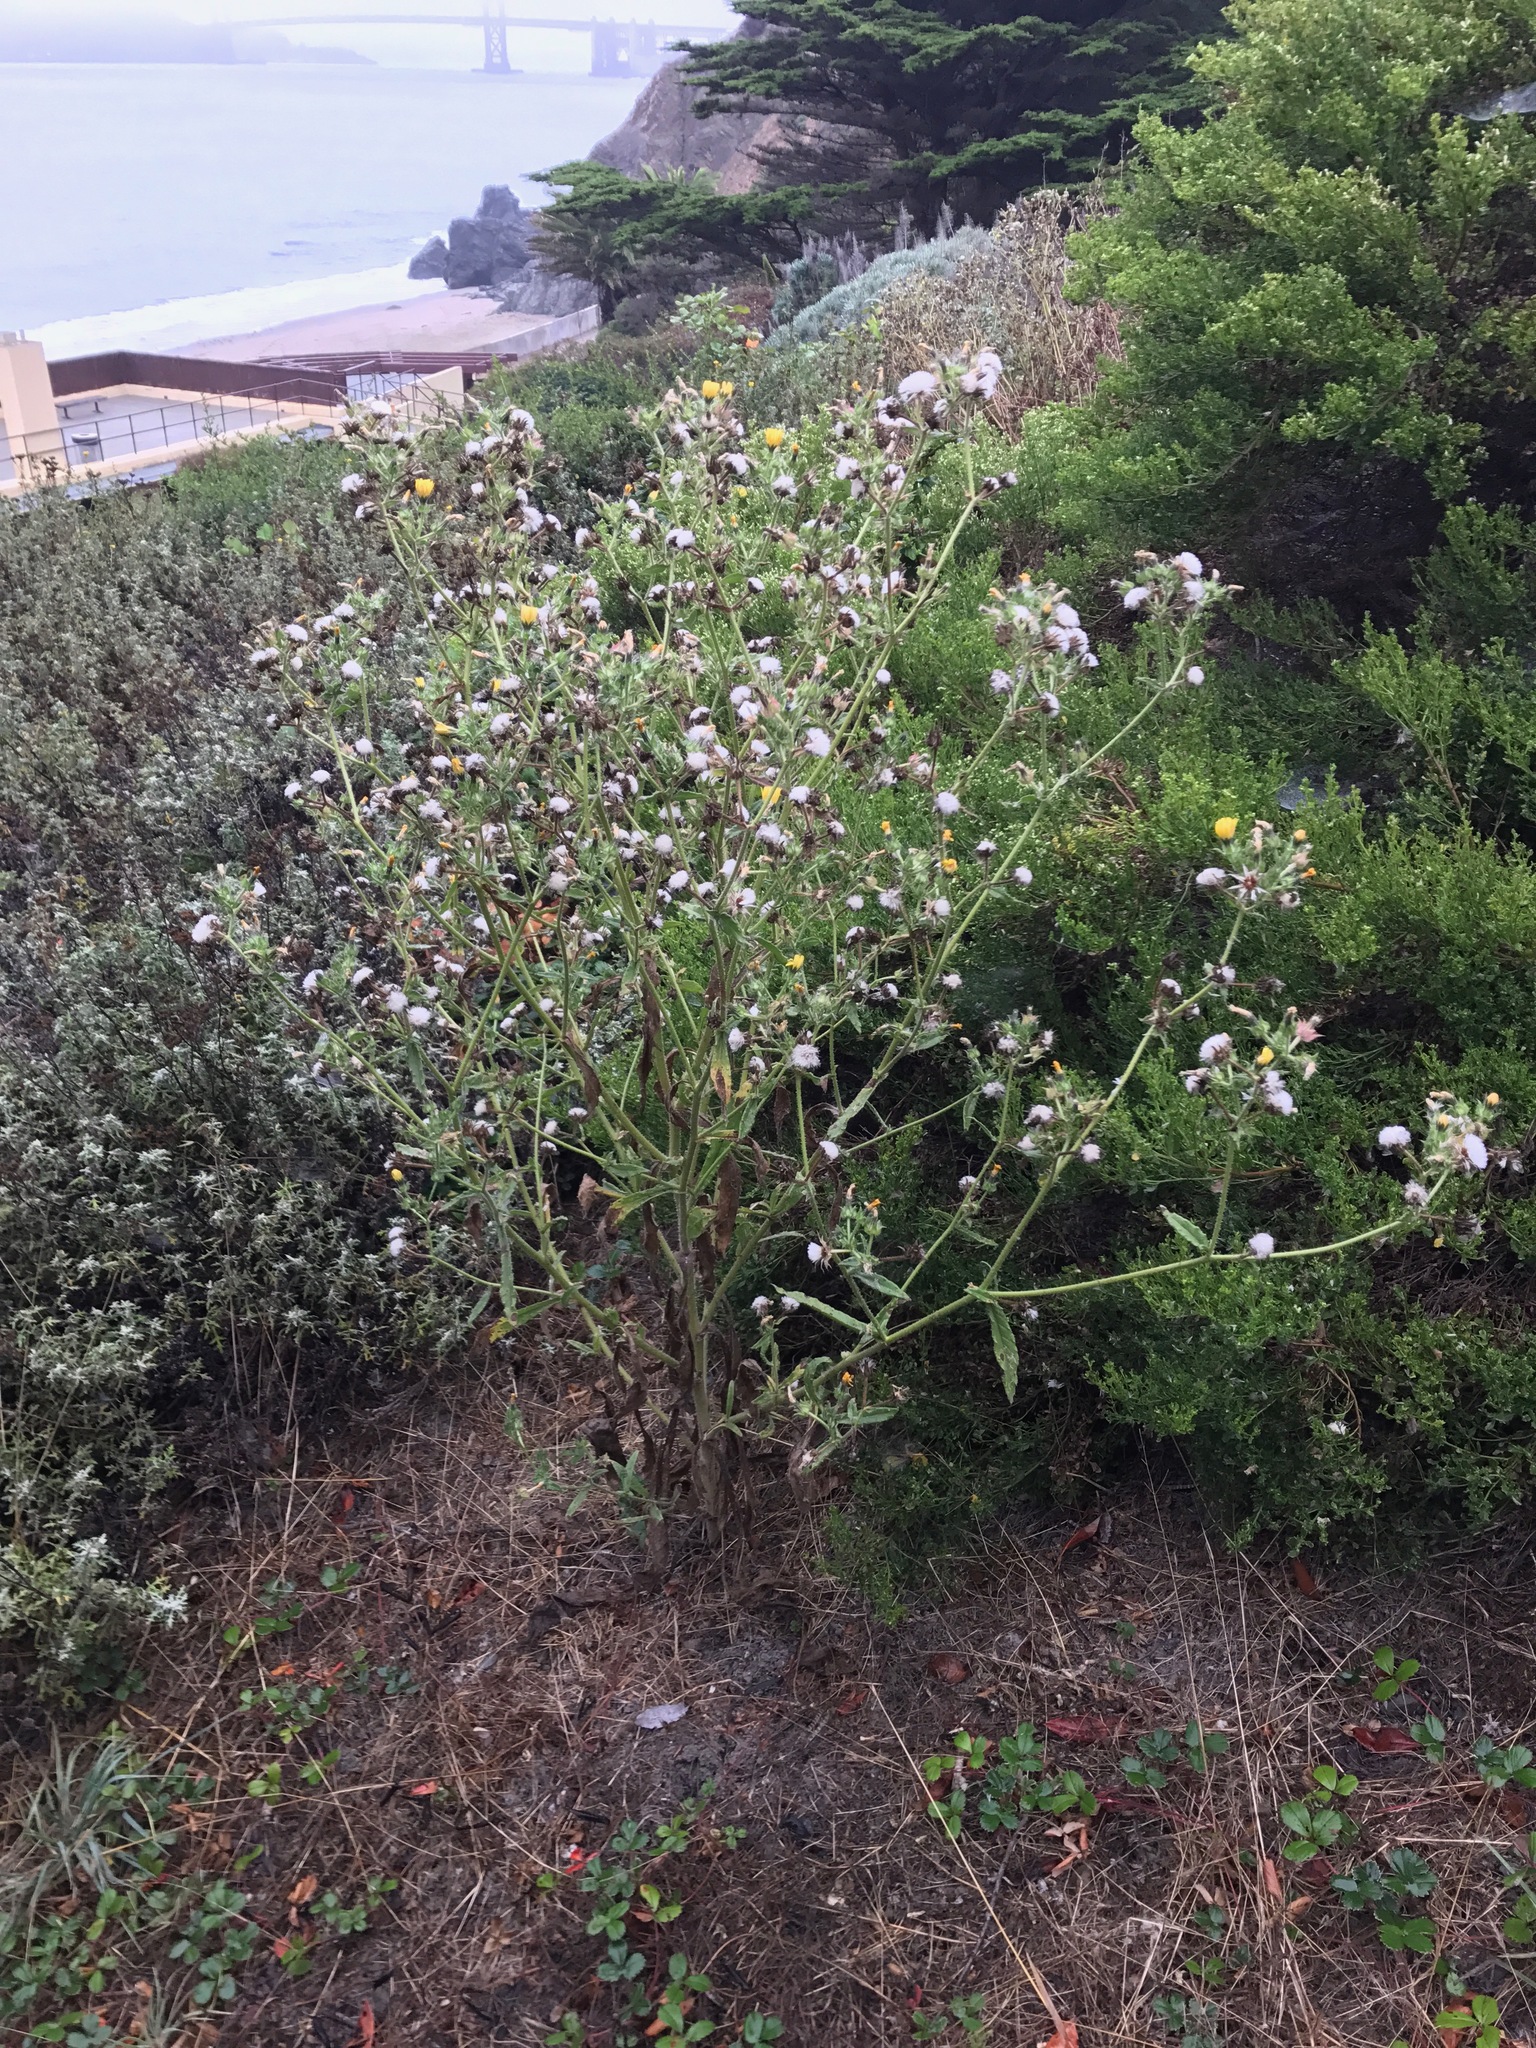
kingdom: Plantae
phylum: Tracheophyta
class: Magnoliopsida
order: Asterales
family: Asteraceae
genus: Helminthotheca
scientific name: Helminthotheca echioides
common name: Ox-tongue
